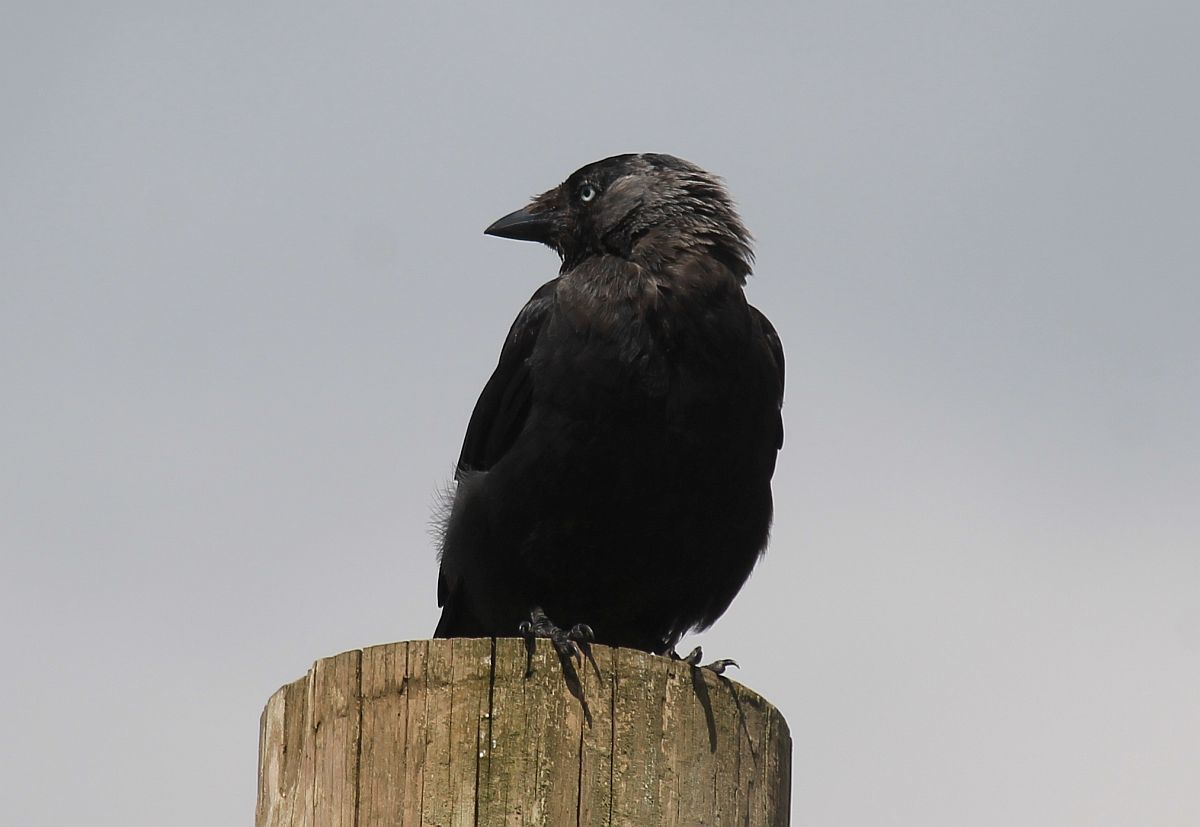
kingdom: Animalia
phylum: Chordata
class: Aves
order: Passeriformes
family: Corvidae
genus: Coloeus
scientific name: Coloeus monedula
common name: Western jackdaw
